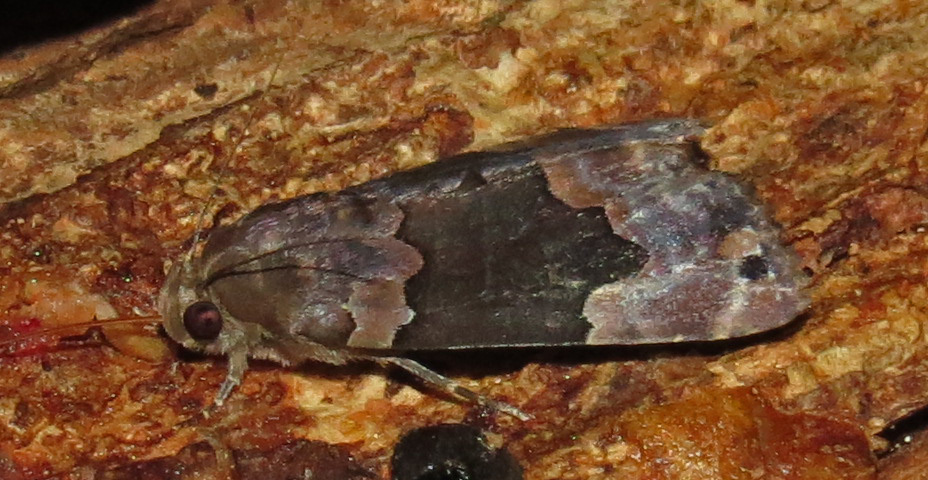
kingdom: Animalia
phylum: Arthropoda
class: Insecta
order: Lepidoptera
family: Erebidae
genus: Dinumma
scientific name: Dinumma deponens
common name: Purplish moth
